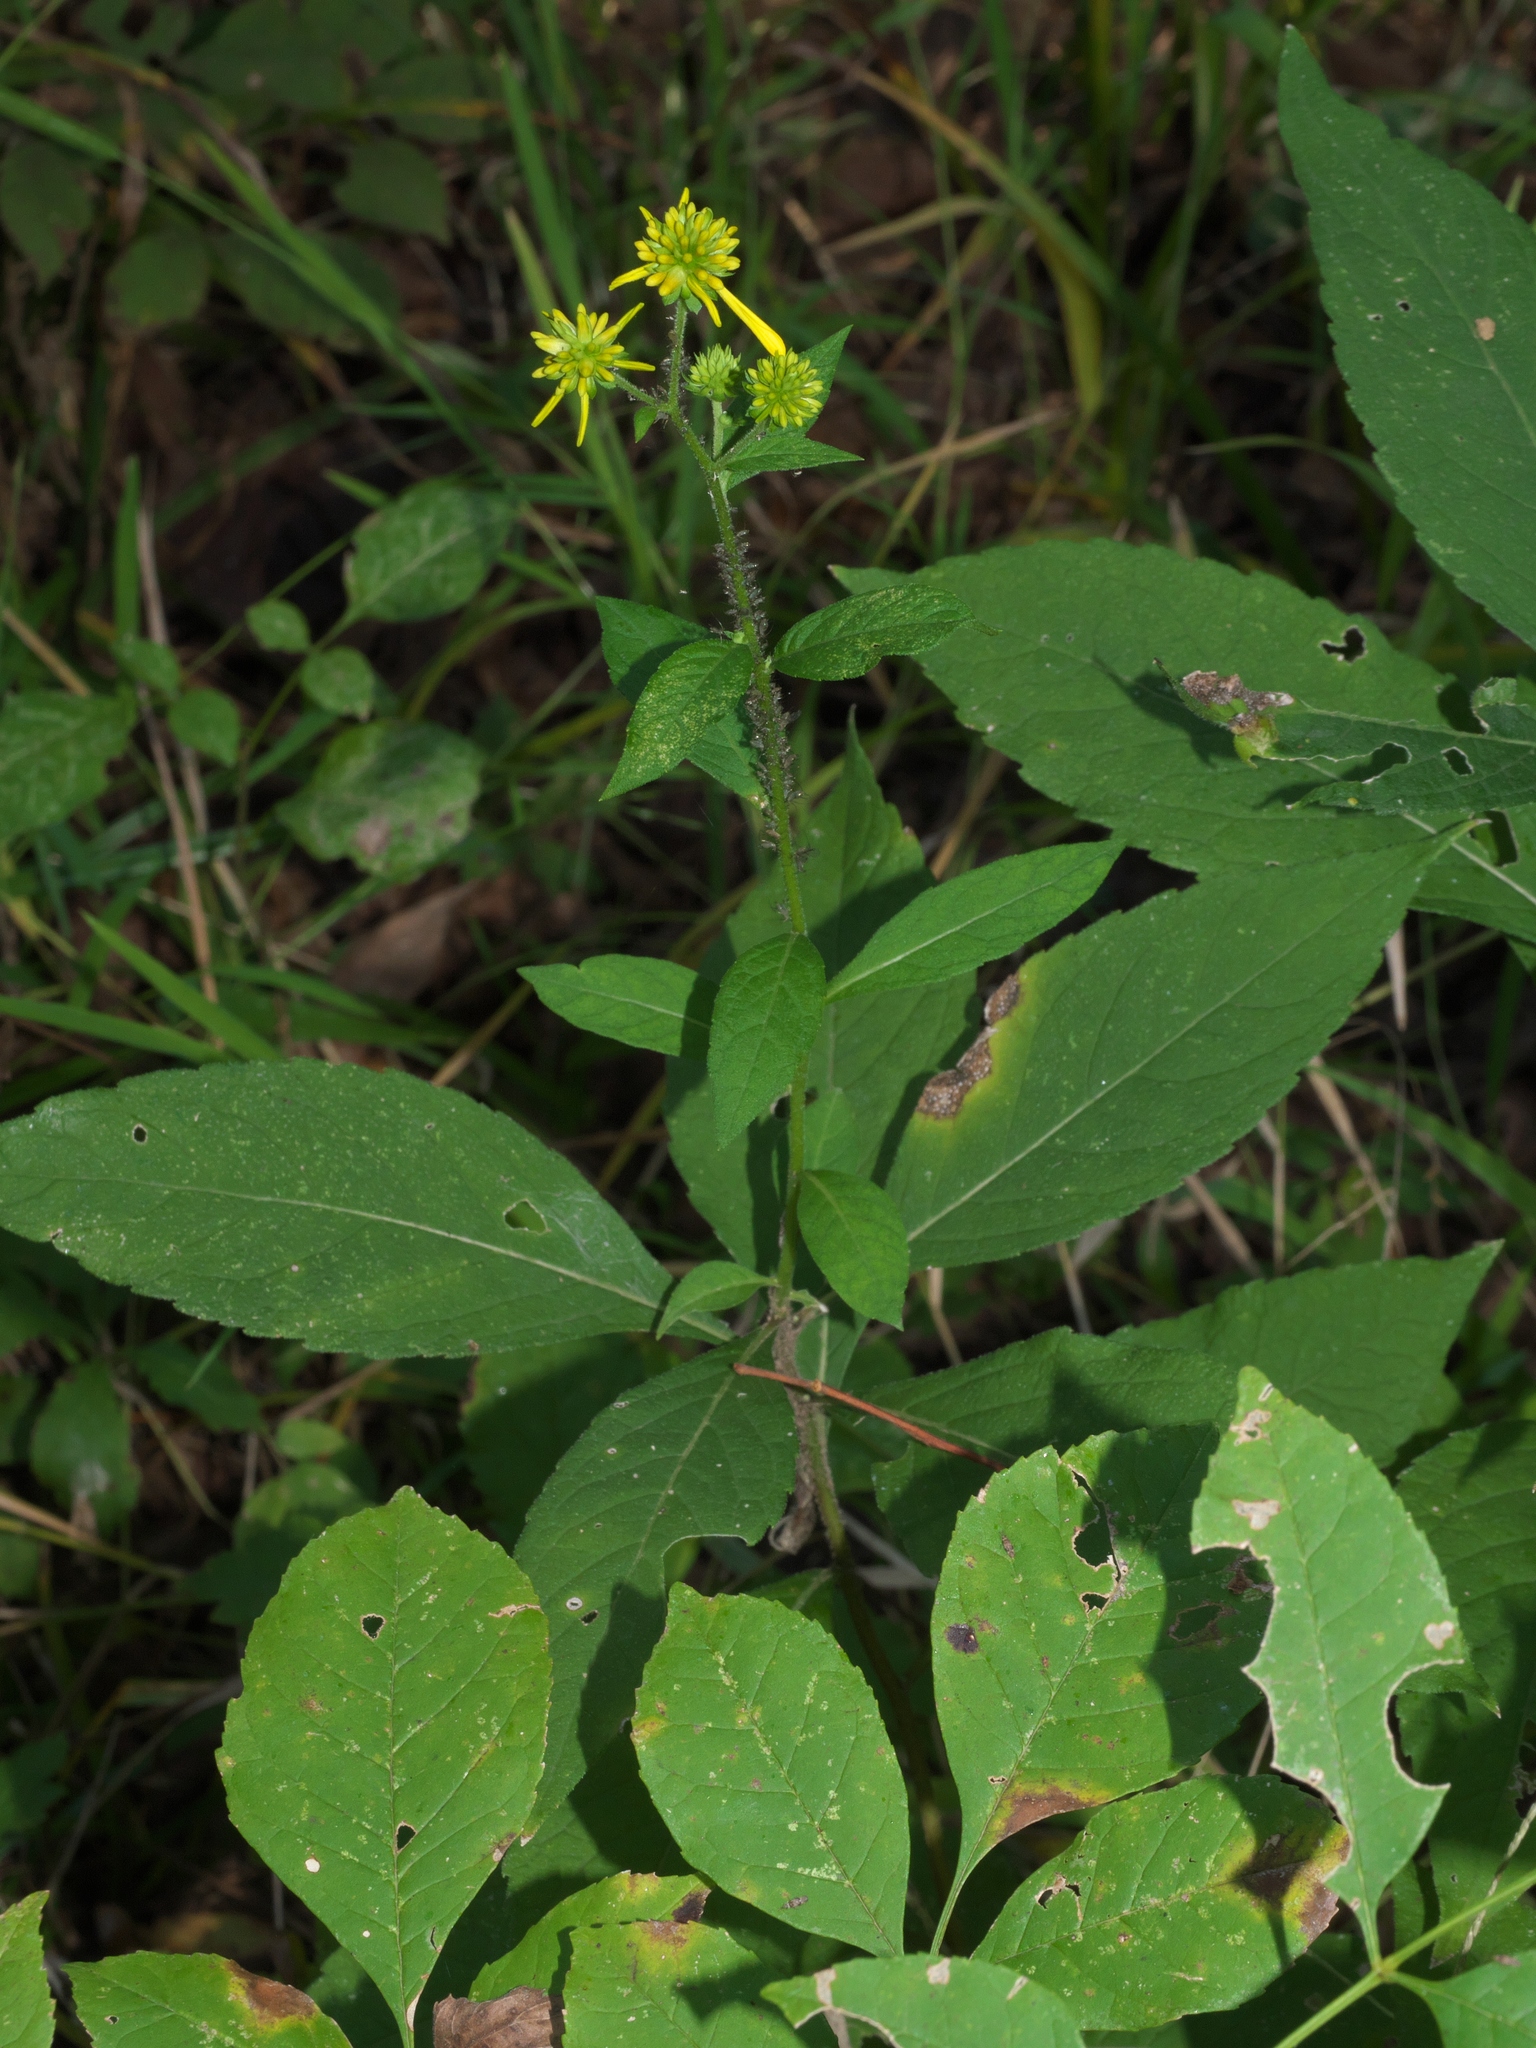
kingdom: Plantae
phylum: Tracheophyta
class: Magnoliopsida
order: Asterales
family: Asteraceae
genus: Verbesina
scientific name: Verbesina alternifolia
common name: Wingstem
